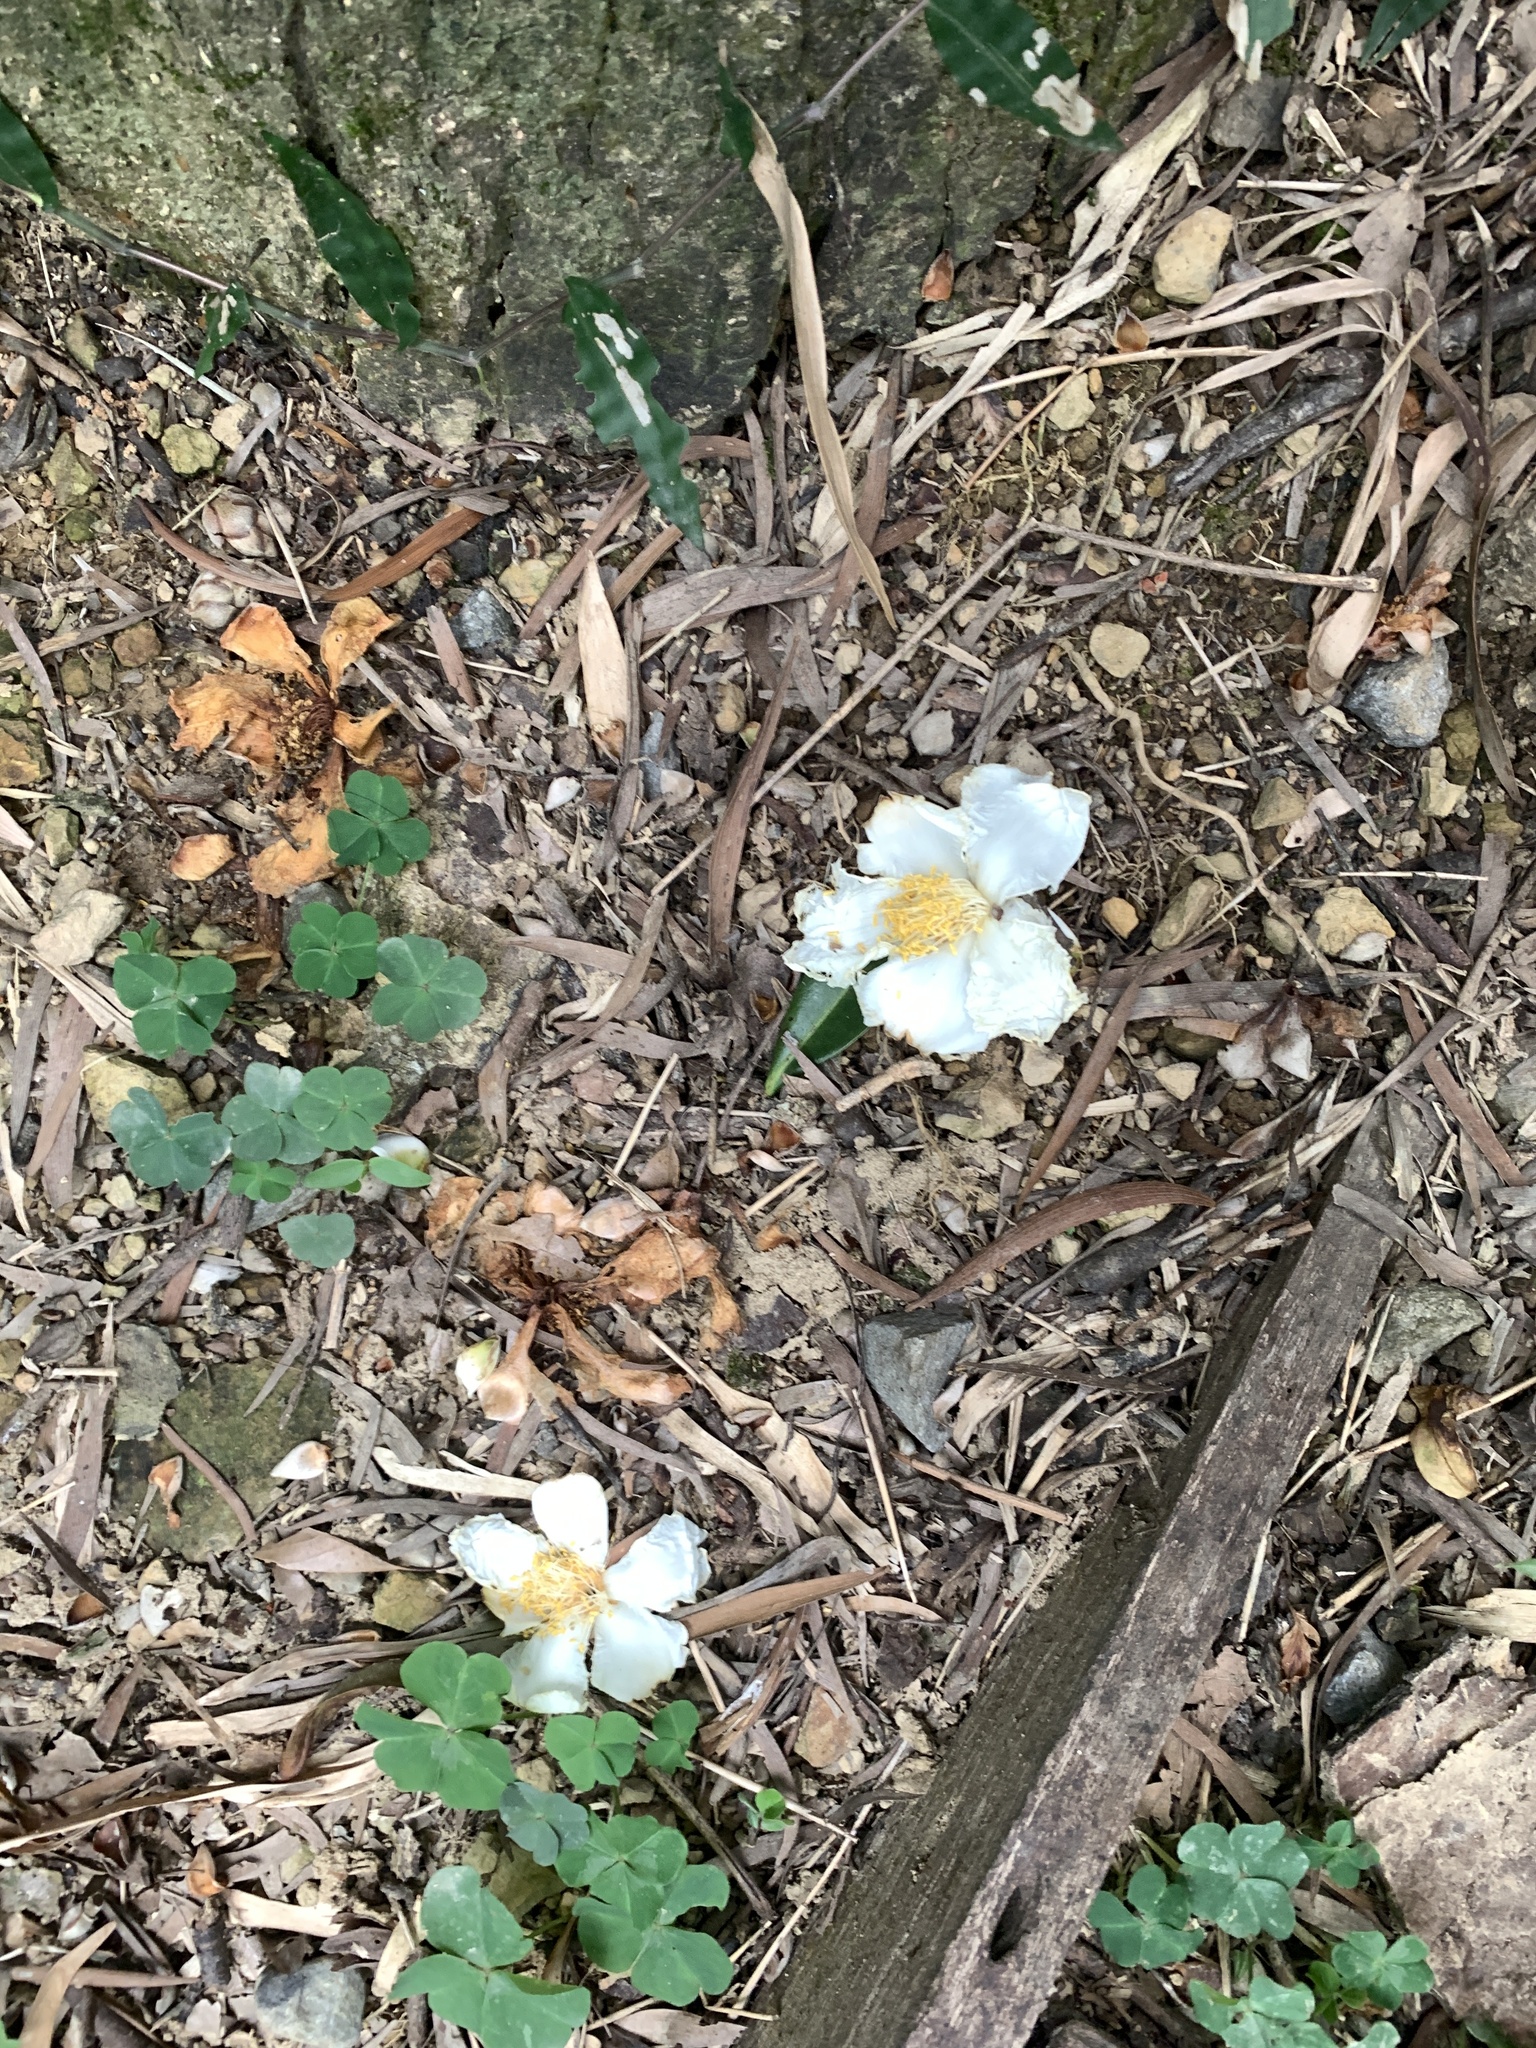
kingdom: Plantae
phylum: Tracheophyta
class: Magnoliopsida
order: Ericales
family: Theaceae
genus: Polyspora
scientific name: Polyspora axillaris
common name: Fried egg tree
